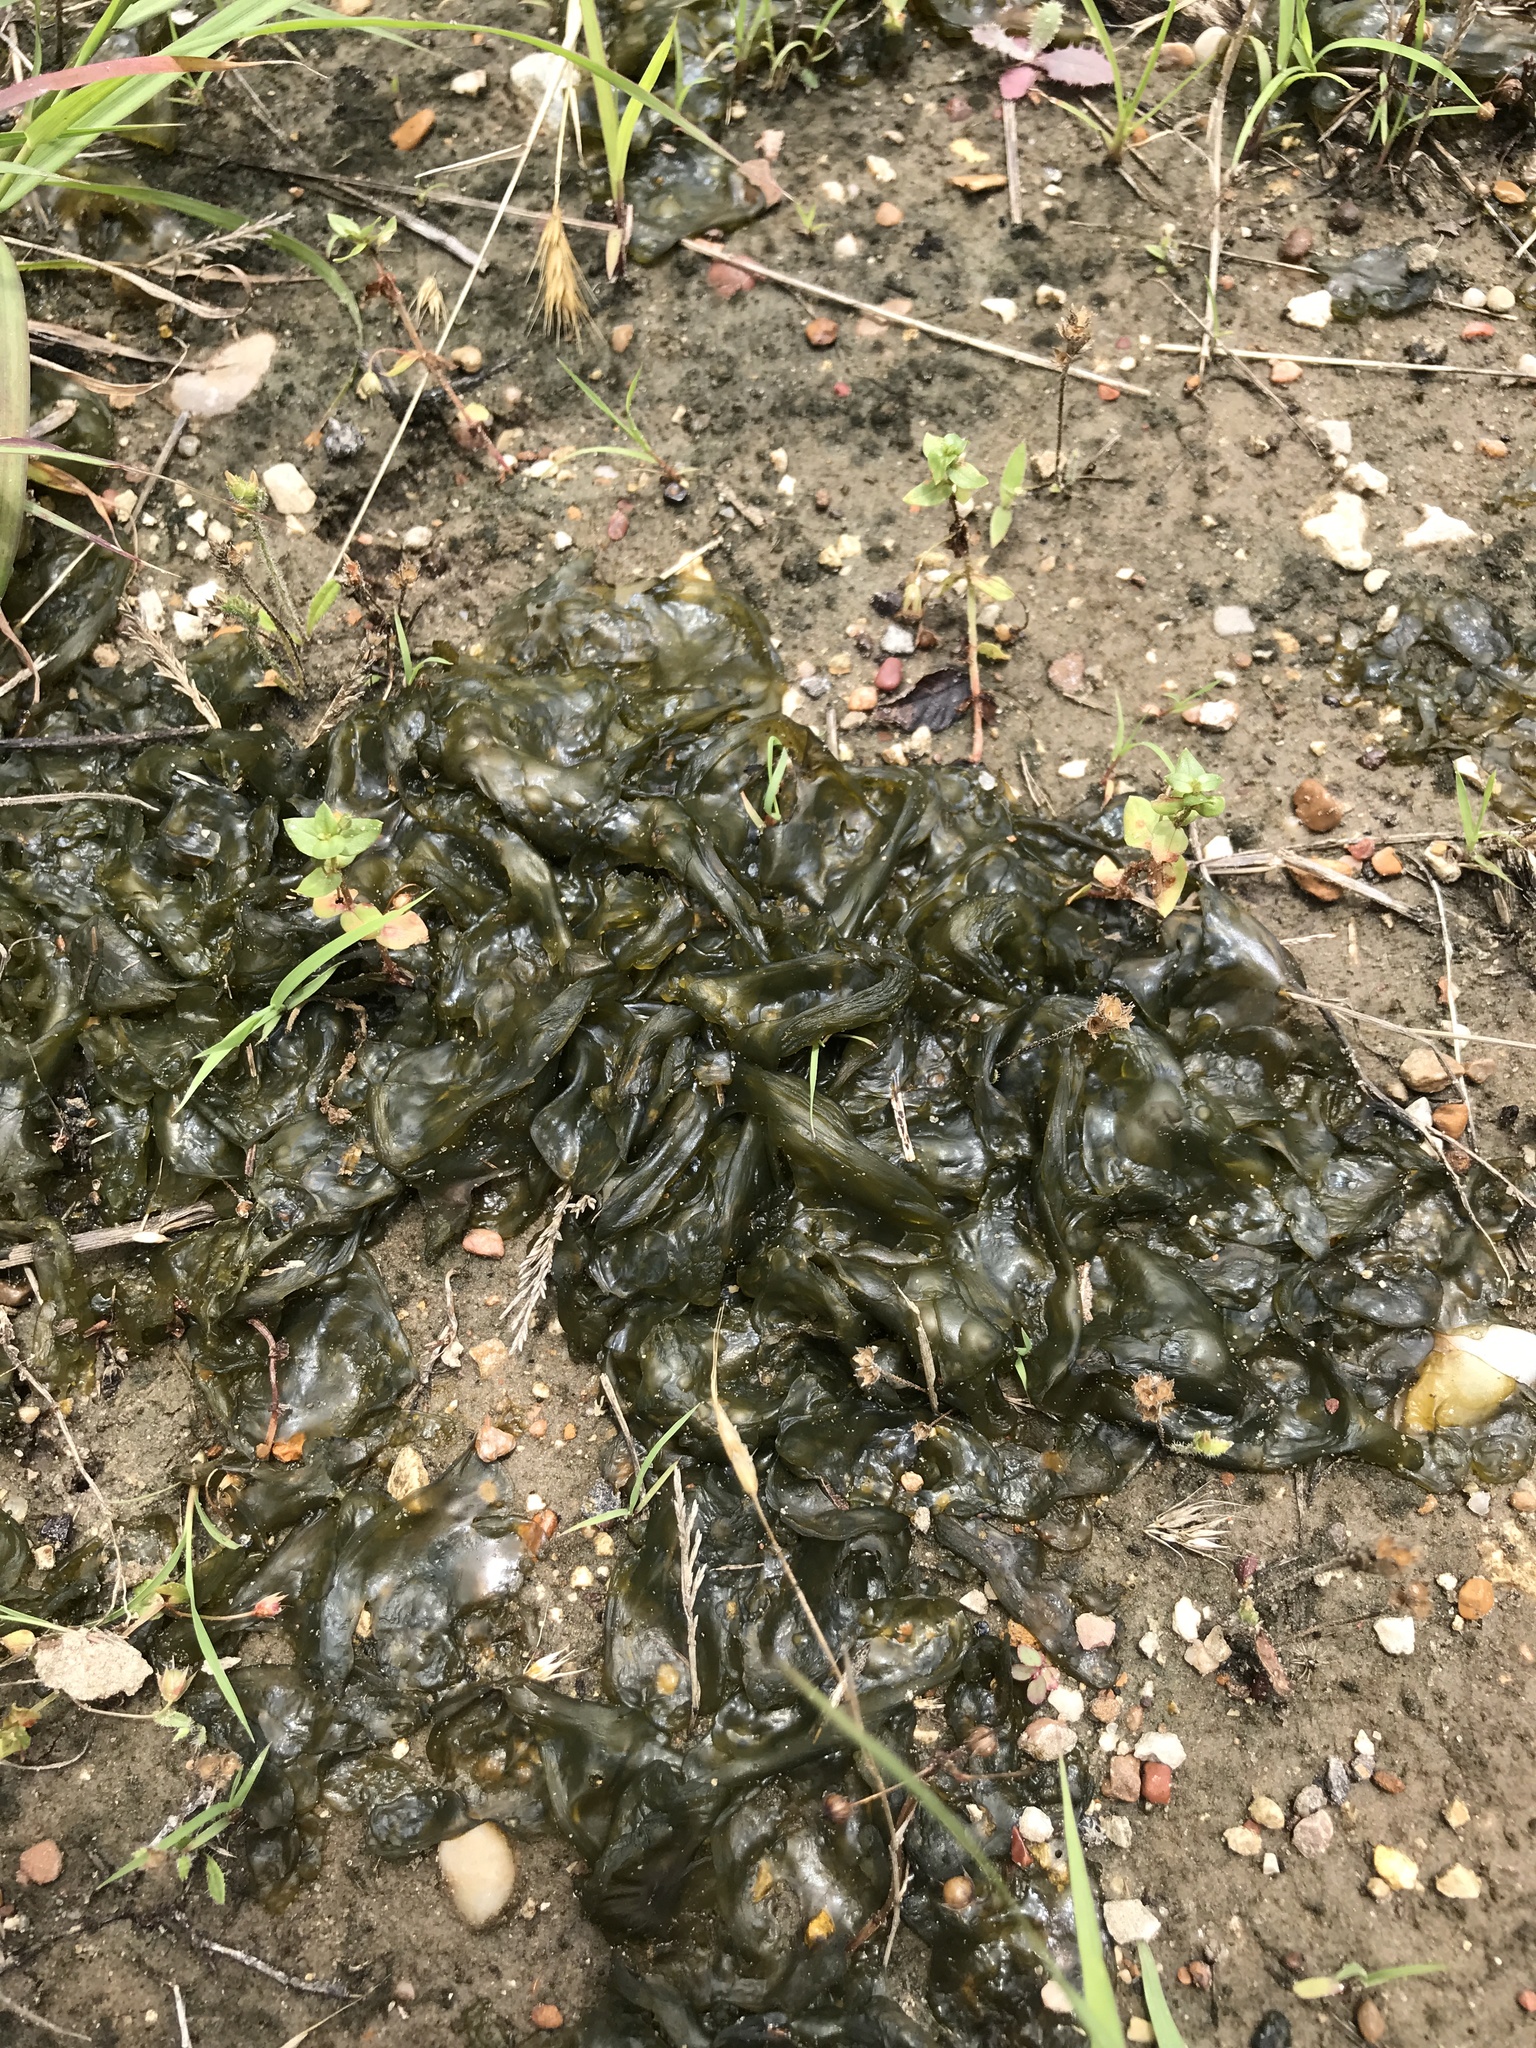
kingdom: Bacteria
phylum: Cyanobacteria
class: Cyanobacteriia
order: Cyanobacteriales
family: Nostocaceae
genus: Nostoc
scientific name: Nostoc commune
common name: Star jelly
